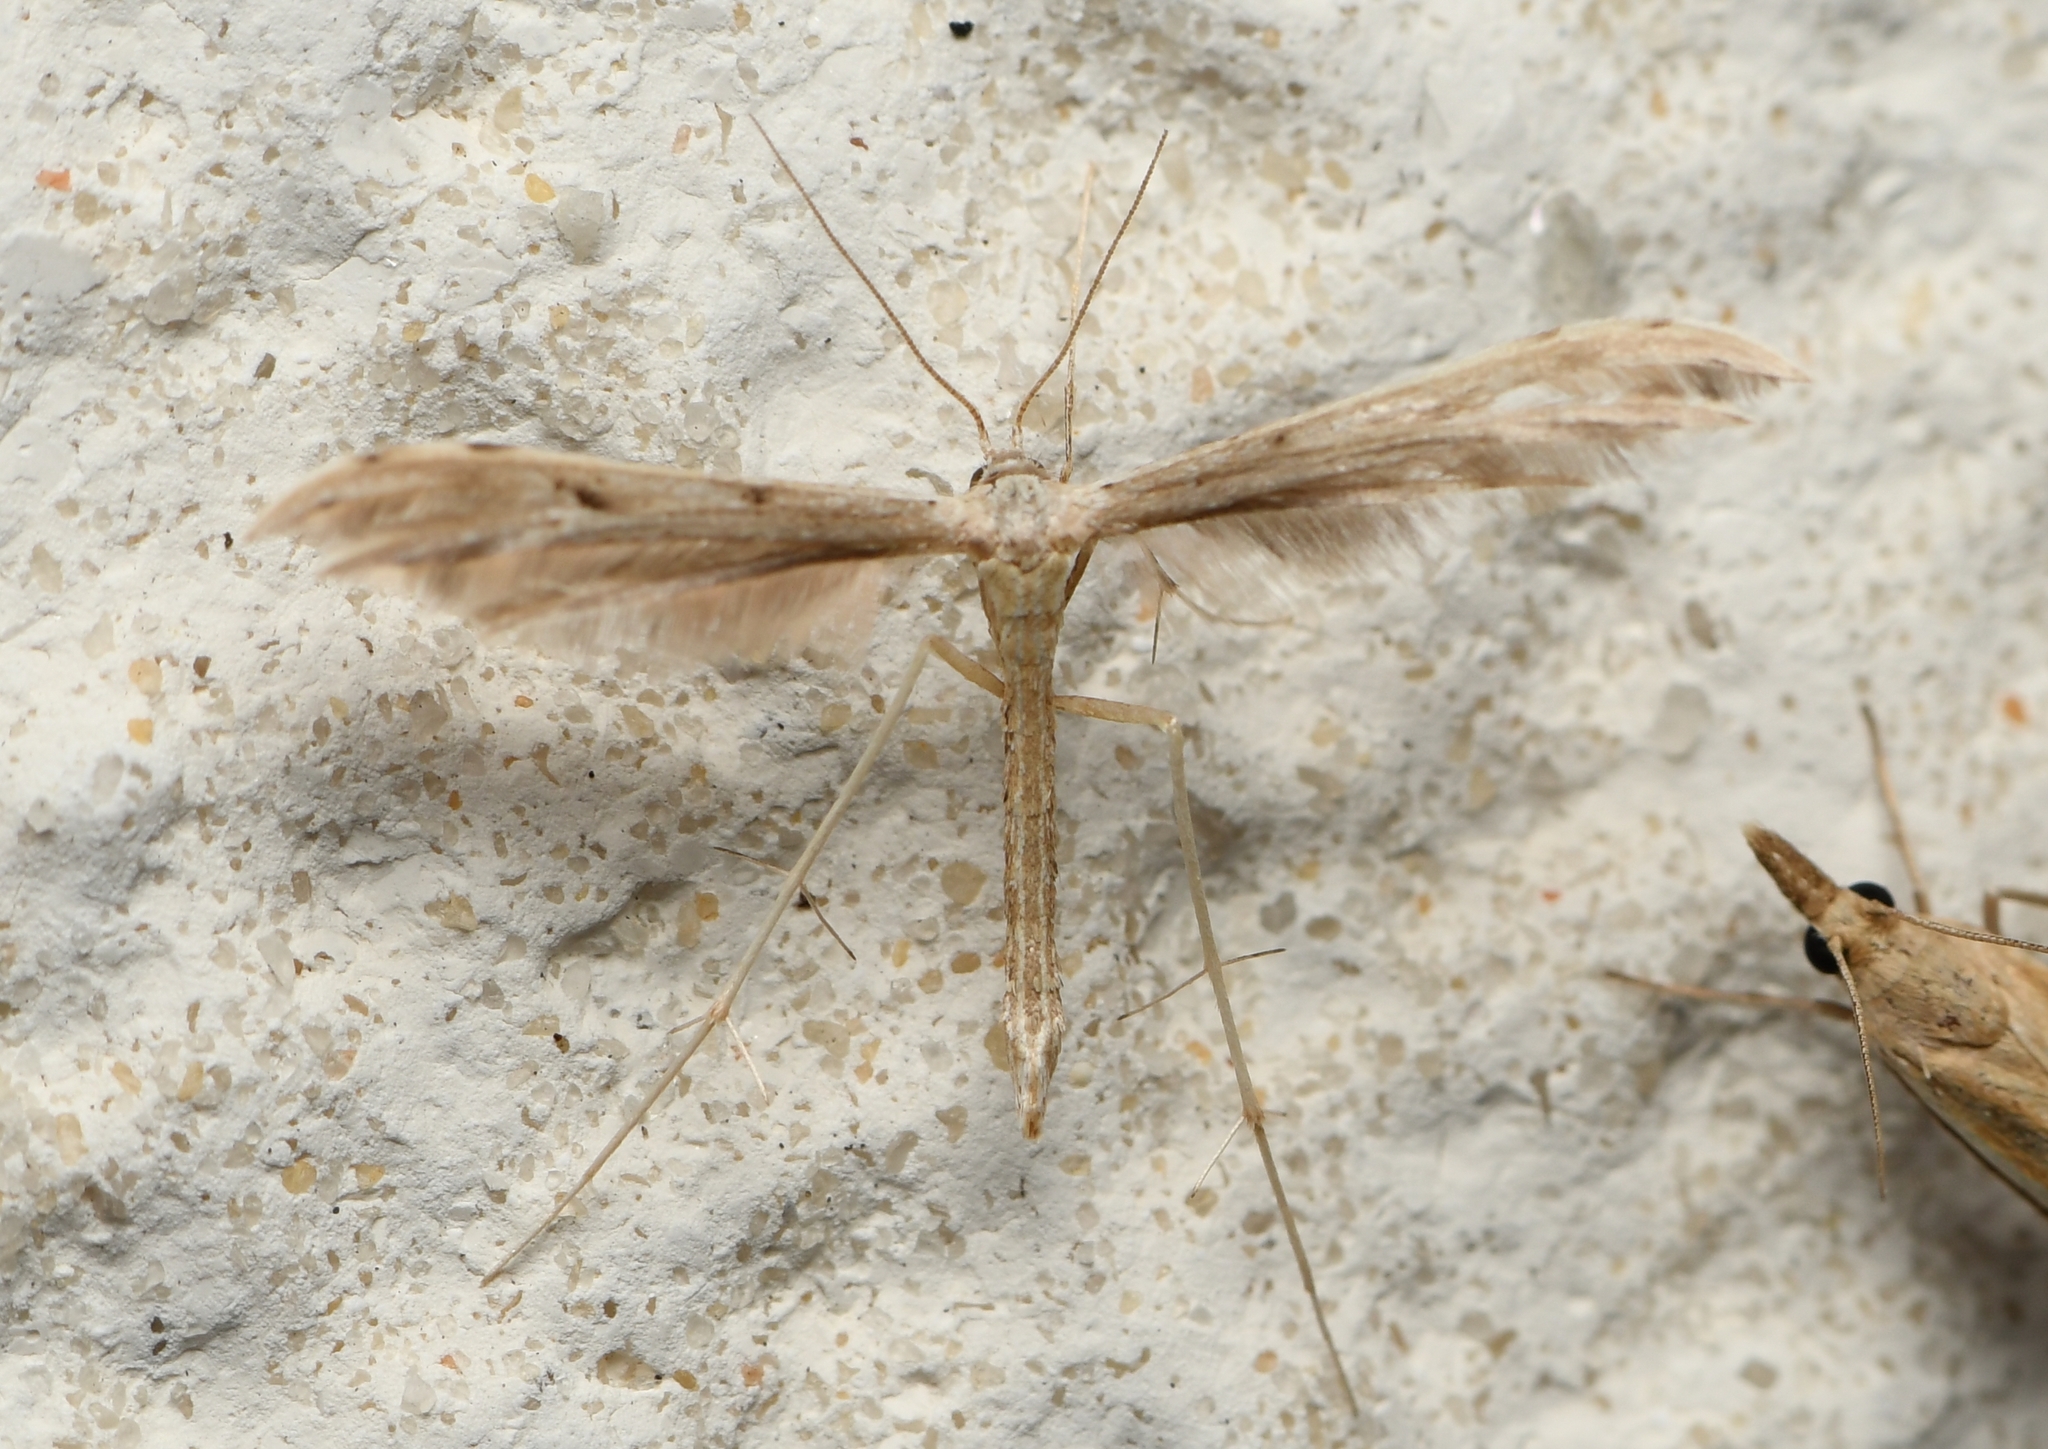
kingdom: Animalia
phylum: Arthropoda
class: Insecta
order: Lepidoptera
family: Pterophoridae
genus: Pselnophorus
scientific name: Pselnophorus belfragei
